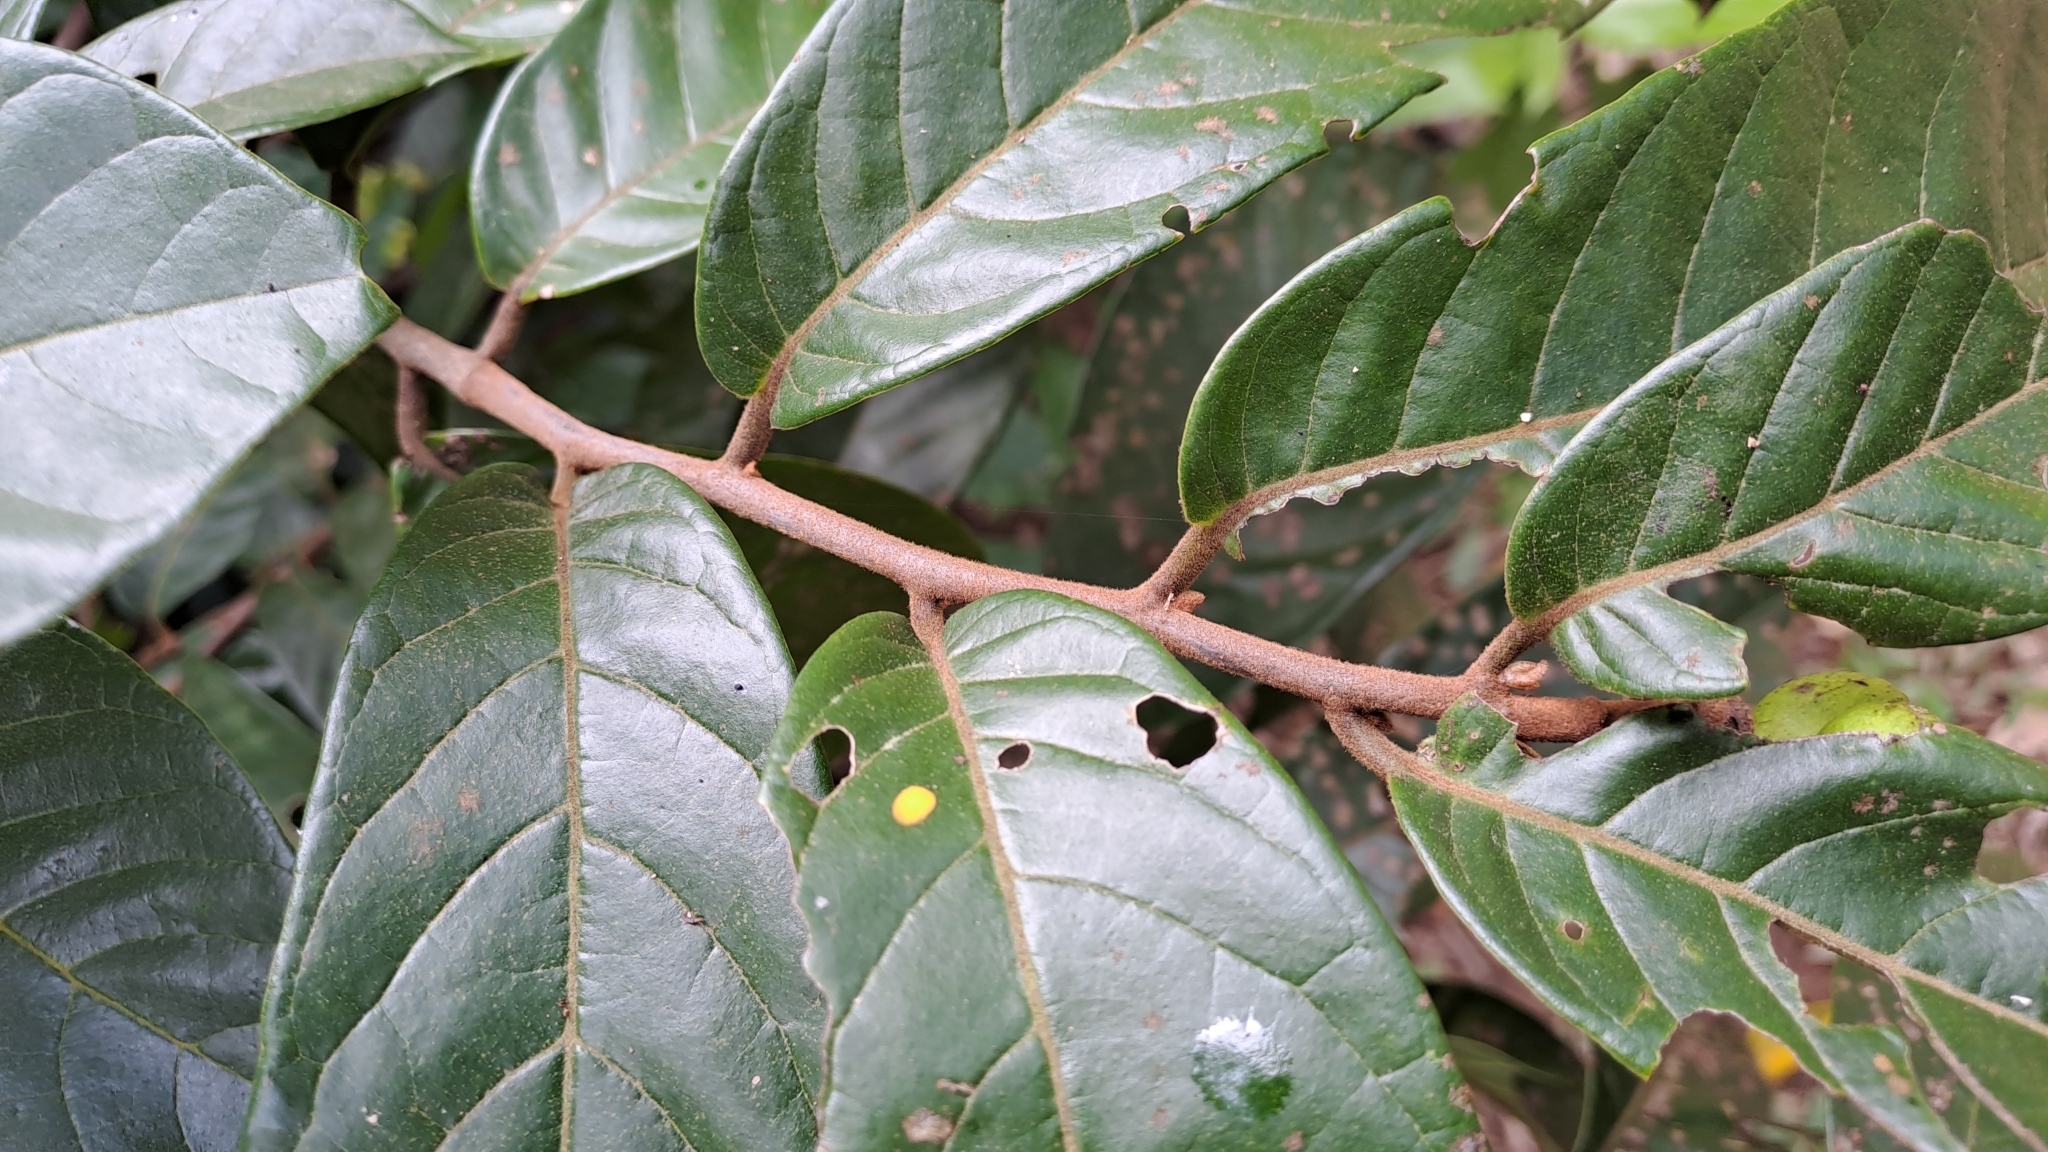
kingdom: Plantae
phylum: Tracheophyta
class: Magnoliopsida
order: Magnoliales
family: Annonaceae
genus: Uvaria
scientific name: Uvaria littoralis
